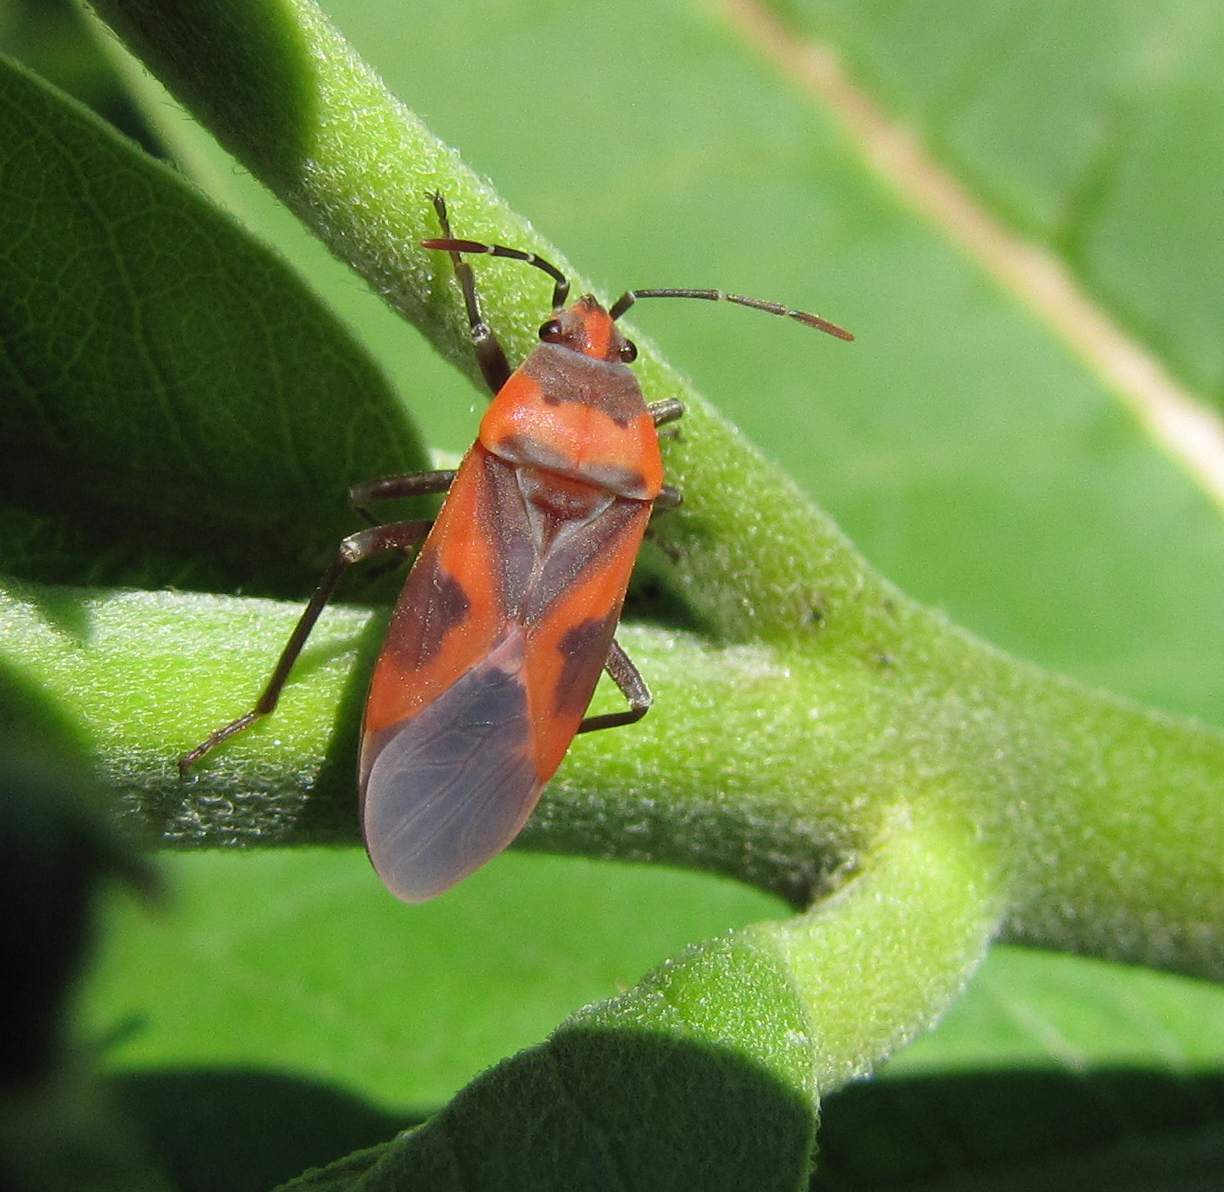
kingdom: Animalia
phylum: Arthropoda
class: Insecta
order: Hemiptera
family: Lygaeidae
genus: Lygaeus
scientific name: Lygaeus kalmii
